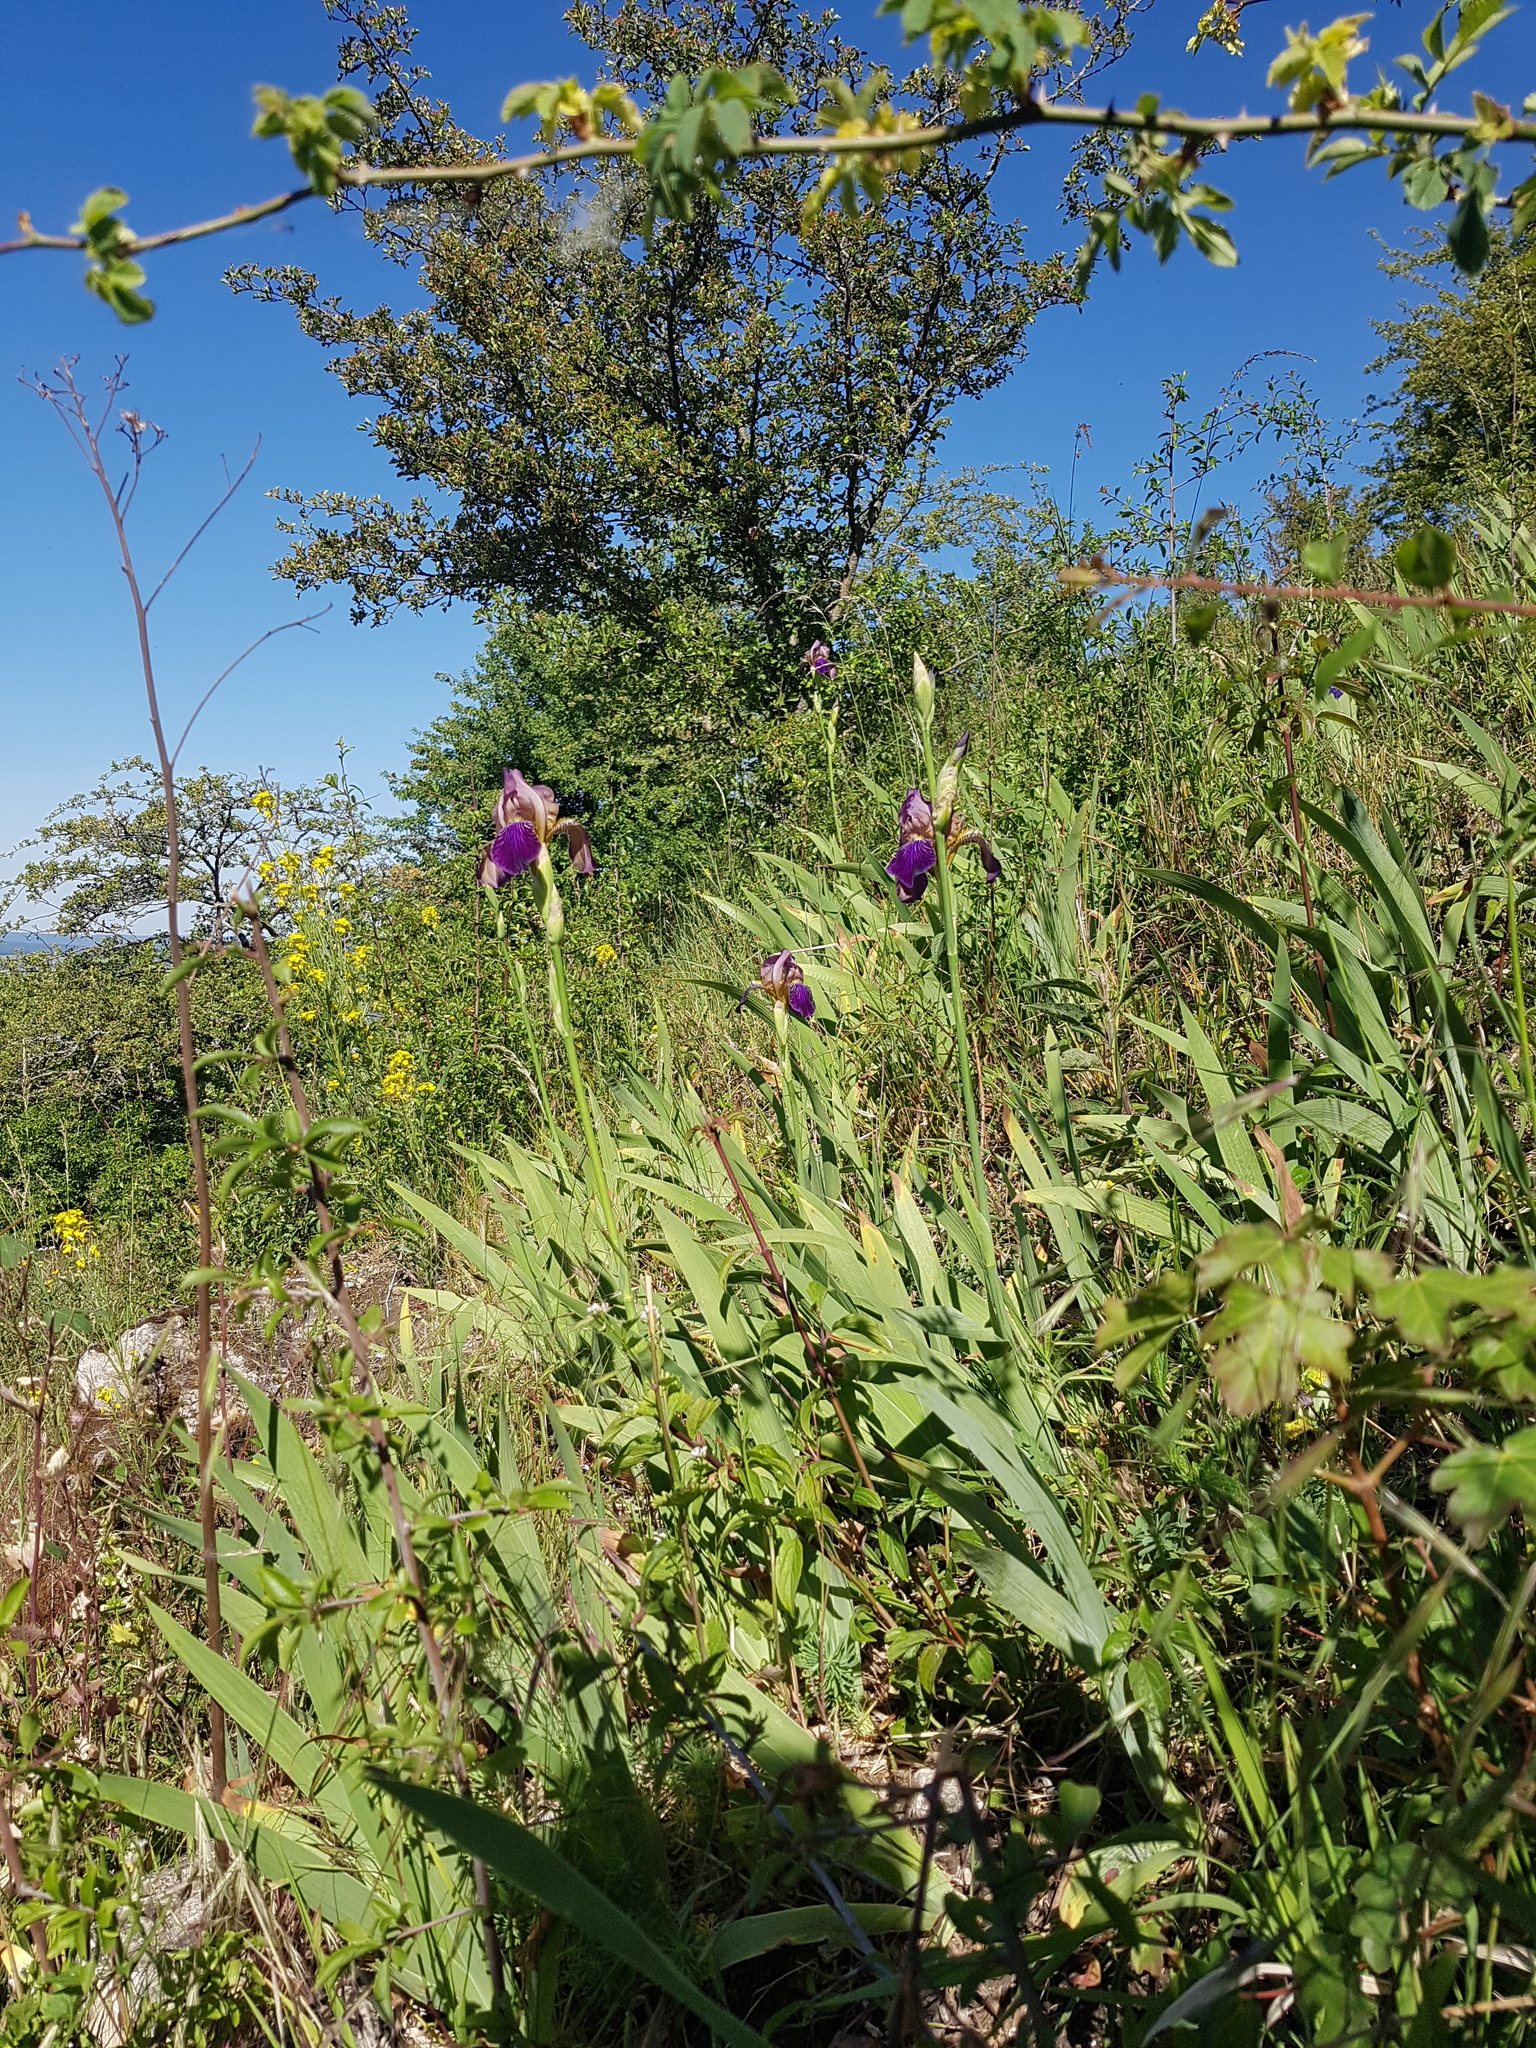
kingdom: Plantae
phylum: Tracheophyta
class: Liliopsida
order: Asparagales
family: Iridaceae
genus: Iris
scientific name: Iris germanica
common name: German iris
